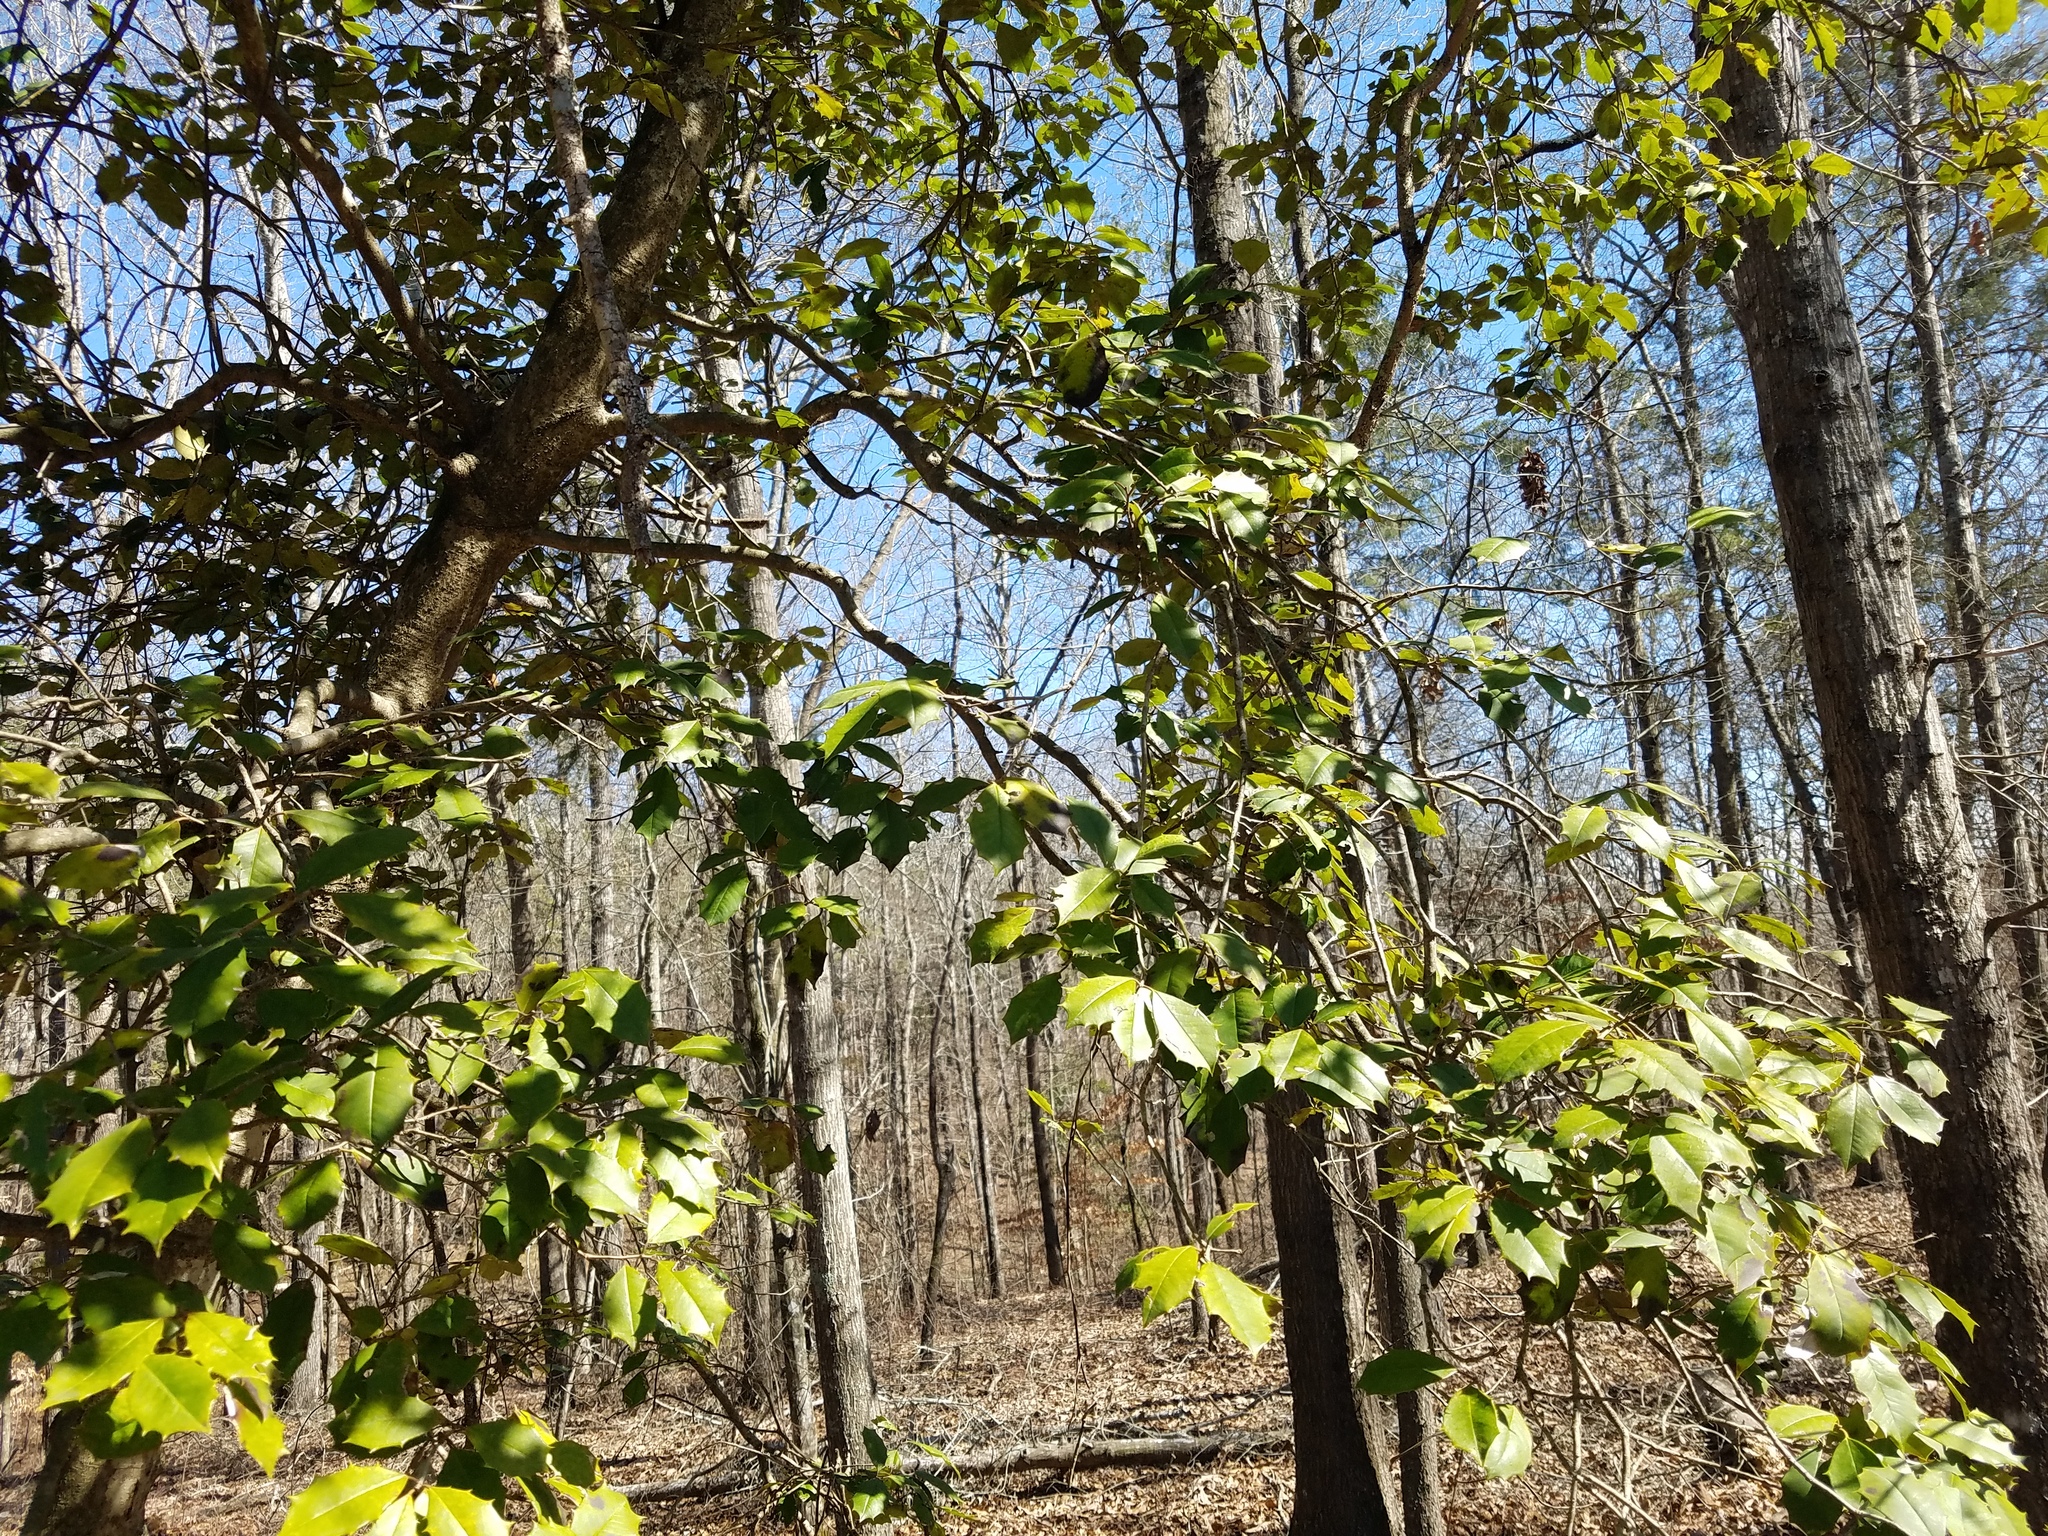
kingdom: Plantae
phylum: Tracheophyta
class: Magnoliopsida
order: Aquifoliales
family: Aquifoliaceae
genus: Ilex
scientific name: Ilex opaca
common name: American holly
